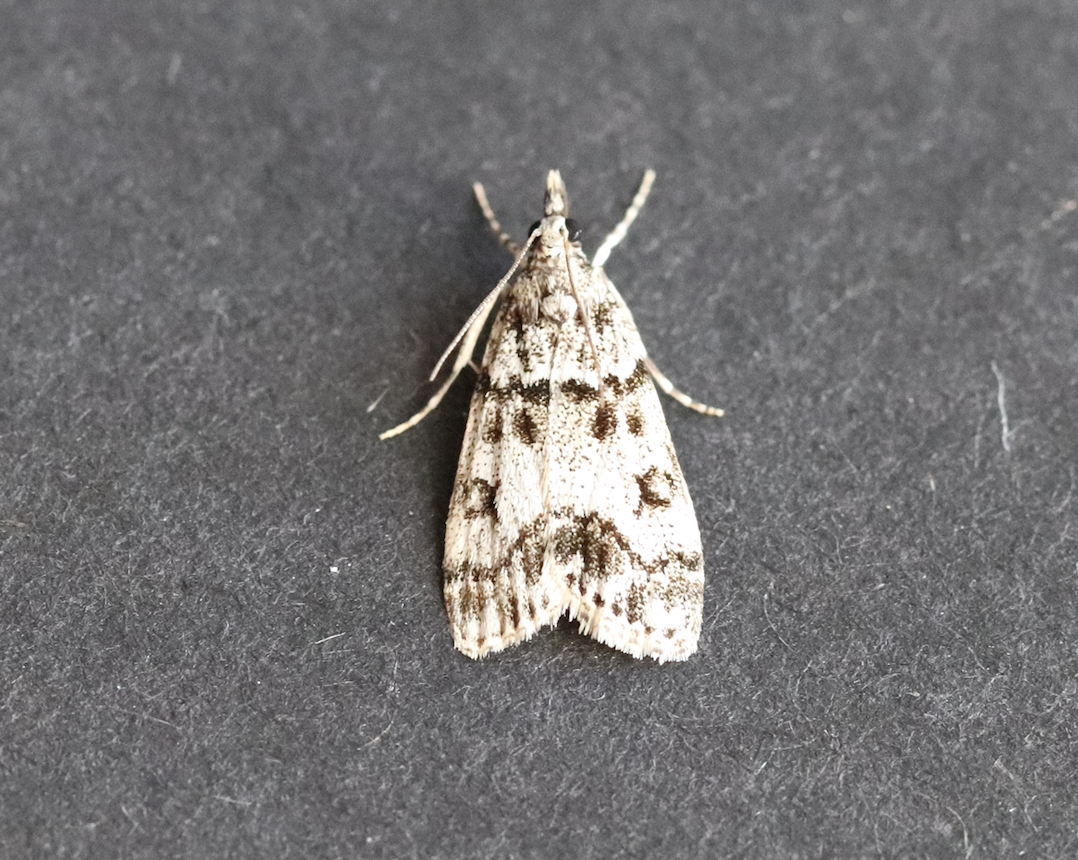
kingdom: Animalia
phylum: Arthropoda
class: Insecta
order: Lepidoptera
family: Crambidae
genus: Eudonia
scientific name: Eudonia lacustrata
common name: Little grey
